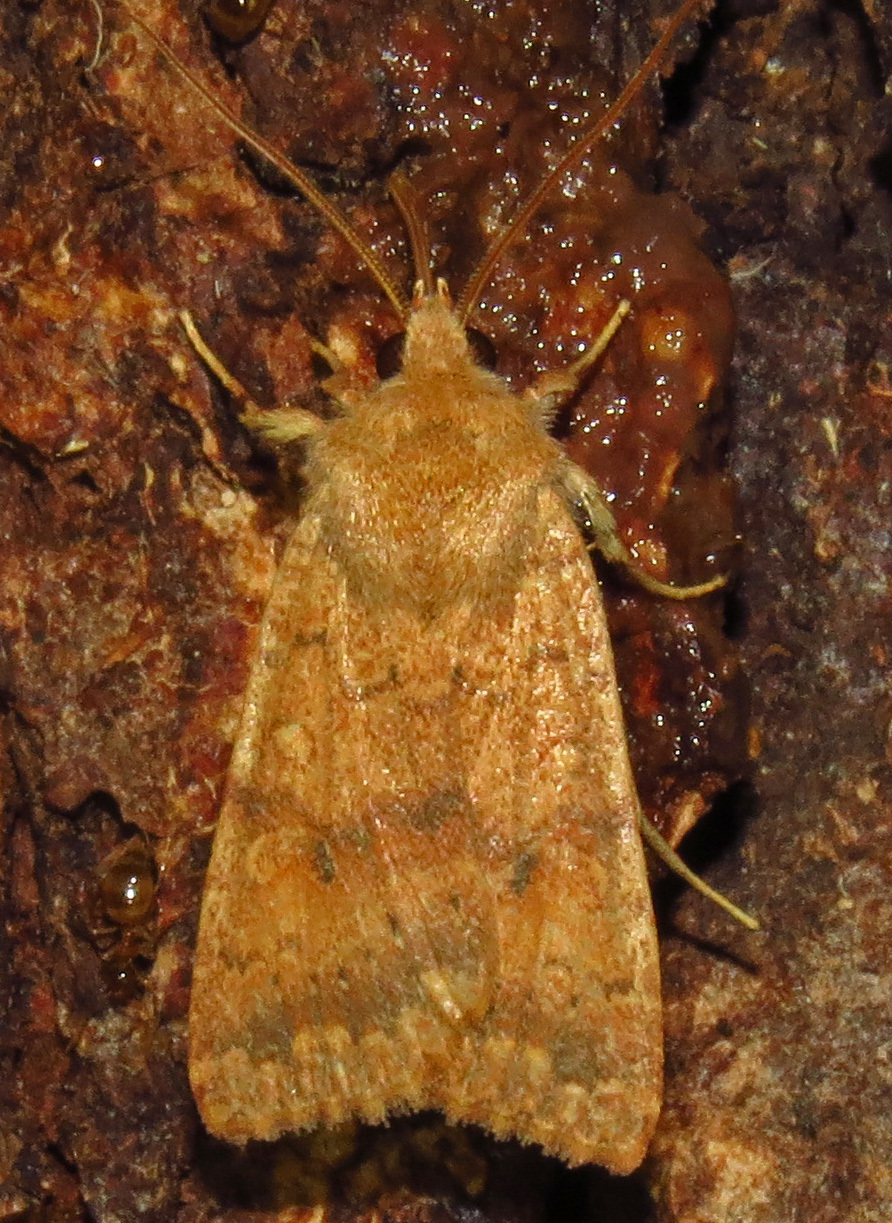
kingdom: Animalia
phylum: Arthropoda
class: Insecta
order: Lepidoptera
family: Noctuidae
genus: Agrochola
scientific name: Agrochola bicolorago
